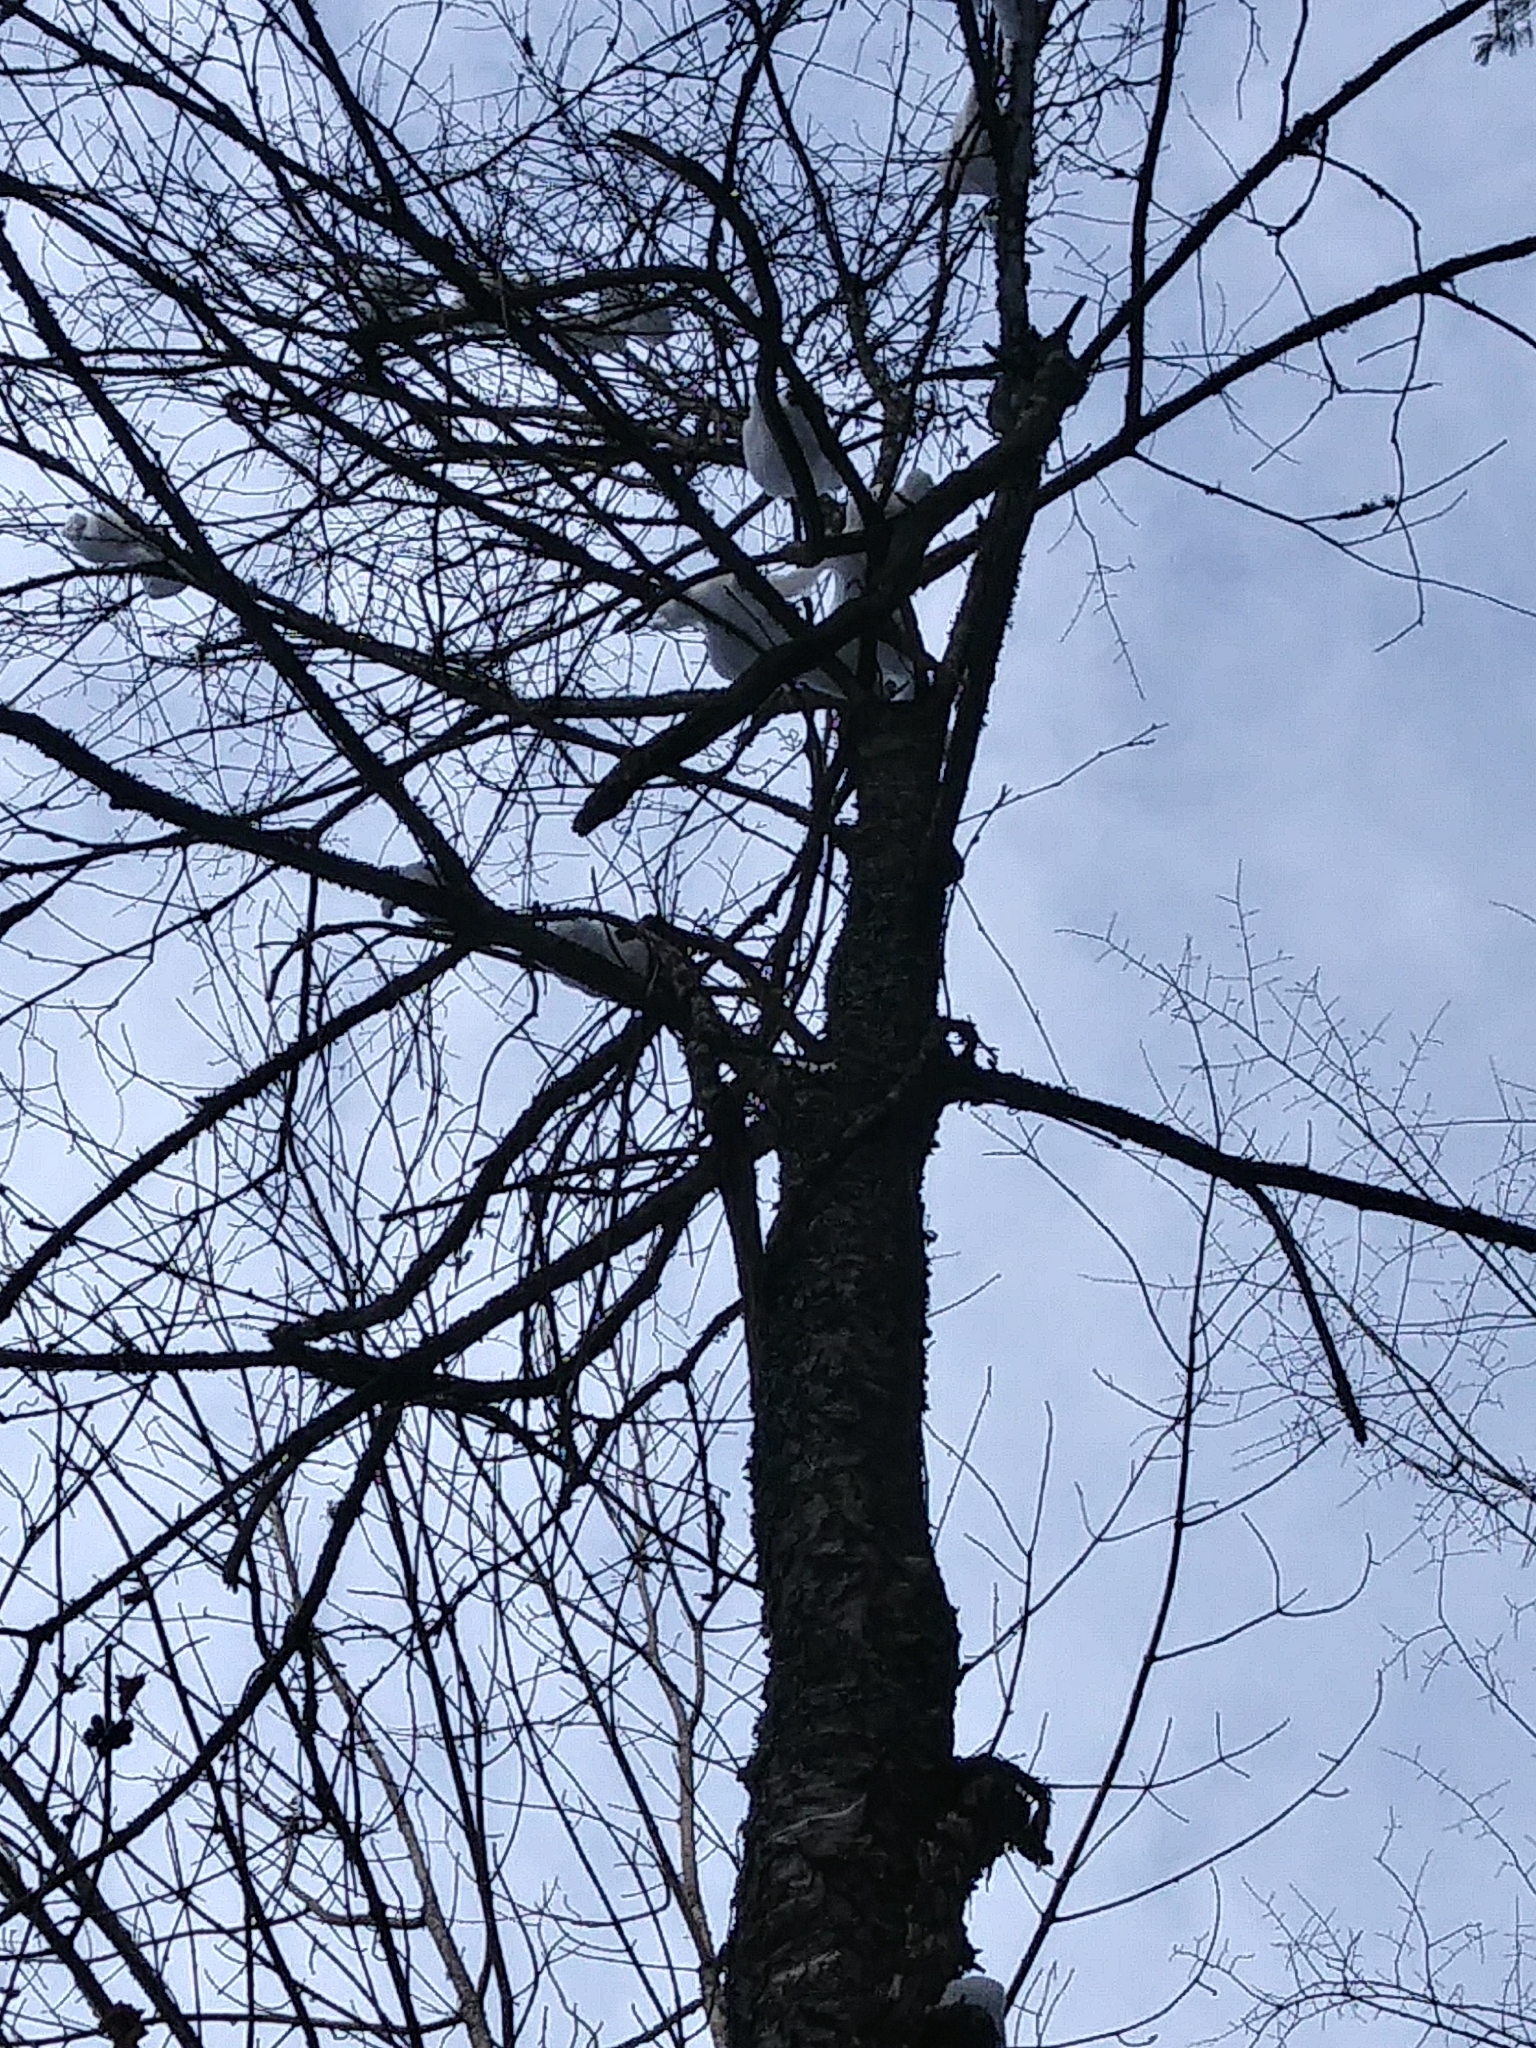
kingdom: Plantae
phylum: Tracheophyta
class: Magnoliopsida
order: Rosales
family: Rosaceae
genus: Prunus
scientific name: Prunus serotina
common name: Black cherry
